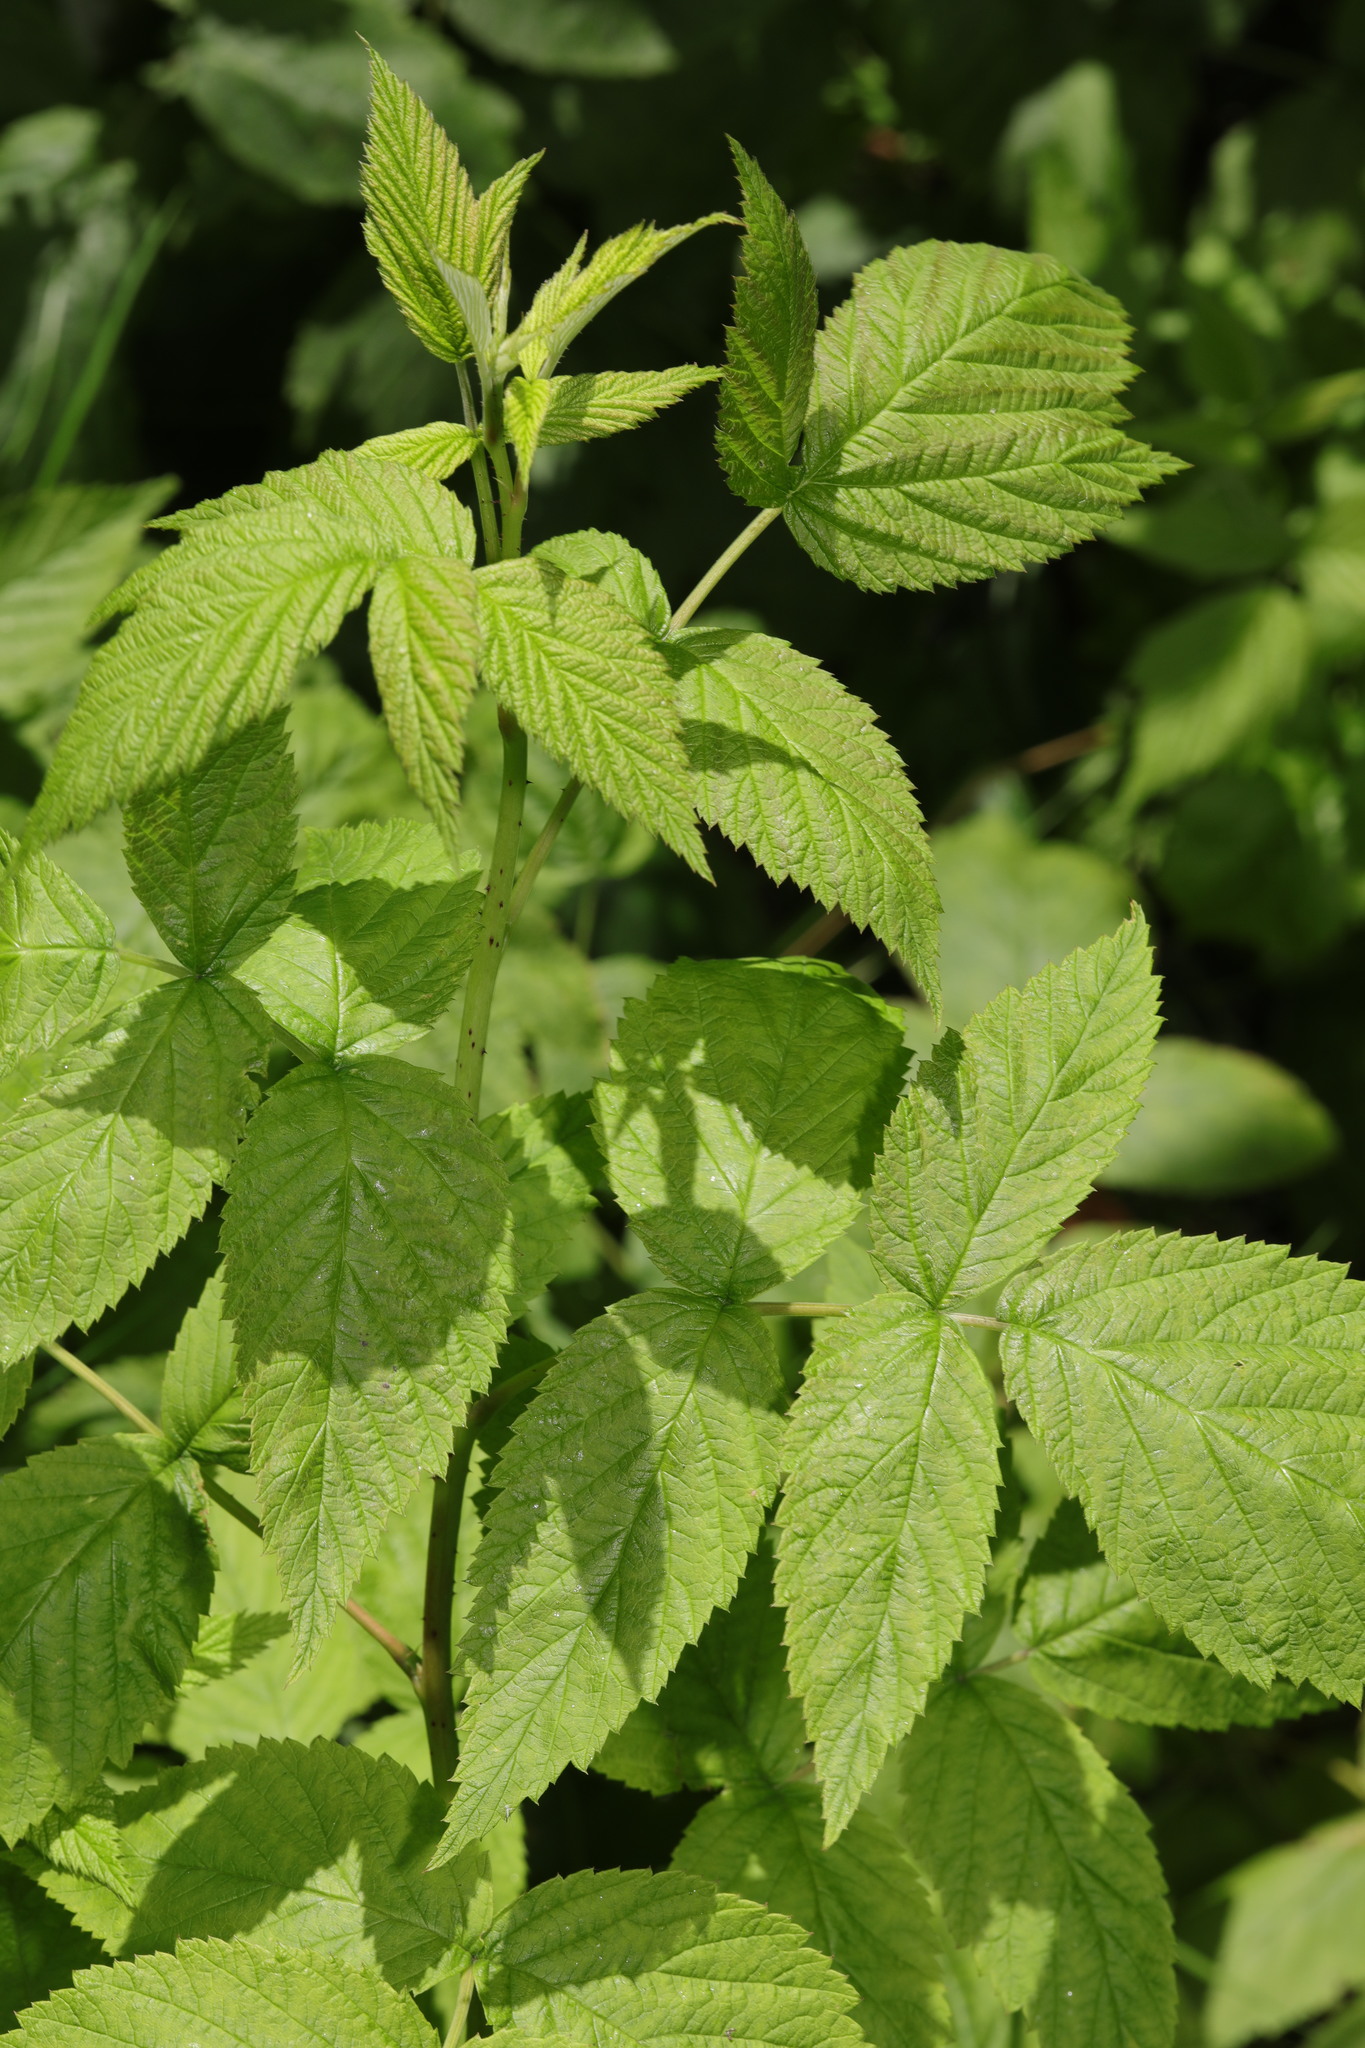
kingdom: Plantae
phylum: Tracheophyta
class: Magnoliopsida
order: Rosales
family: Rosaceae
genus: Rubus
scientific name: Rubus idaeus
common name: Raspberry
